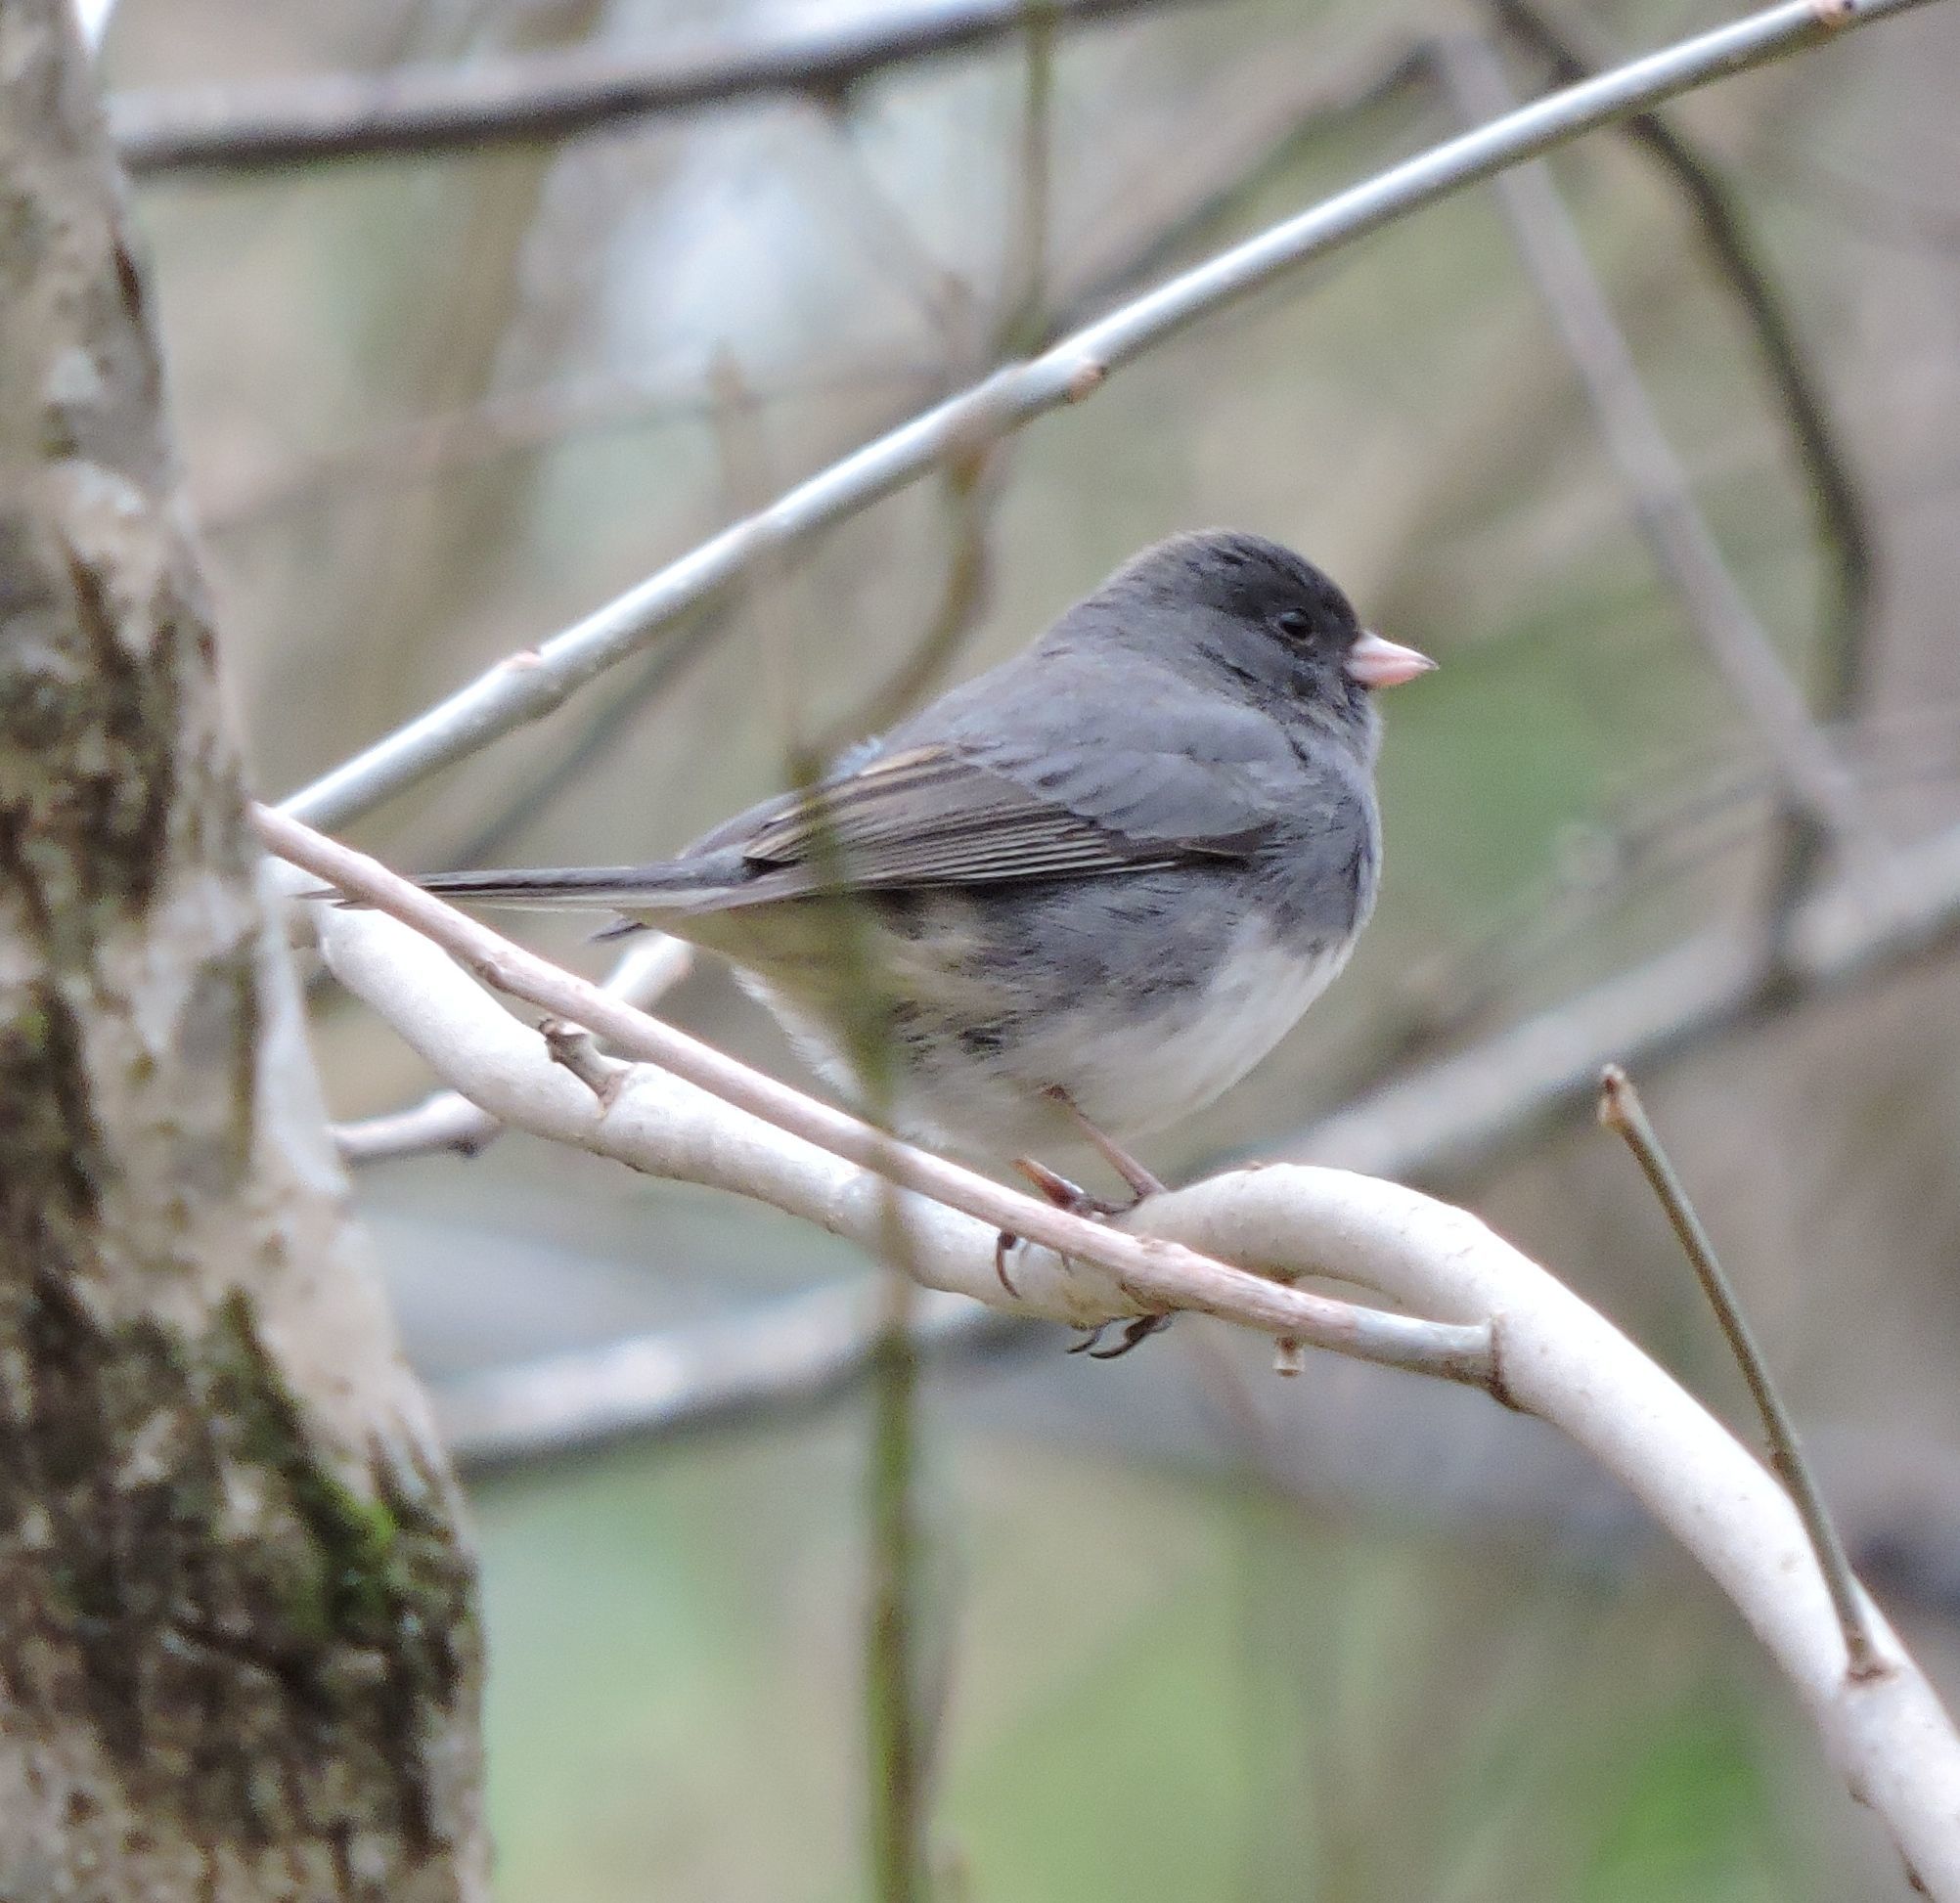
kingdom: Animalia
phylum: Chordata
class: Aves
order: Passeriformes
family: Passerellidae
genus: Junco
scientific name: Junco hyemalis
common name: Dark-eyed junco
